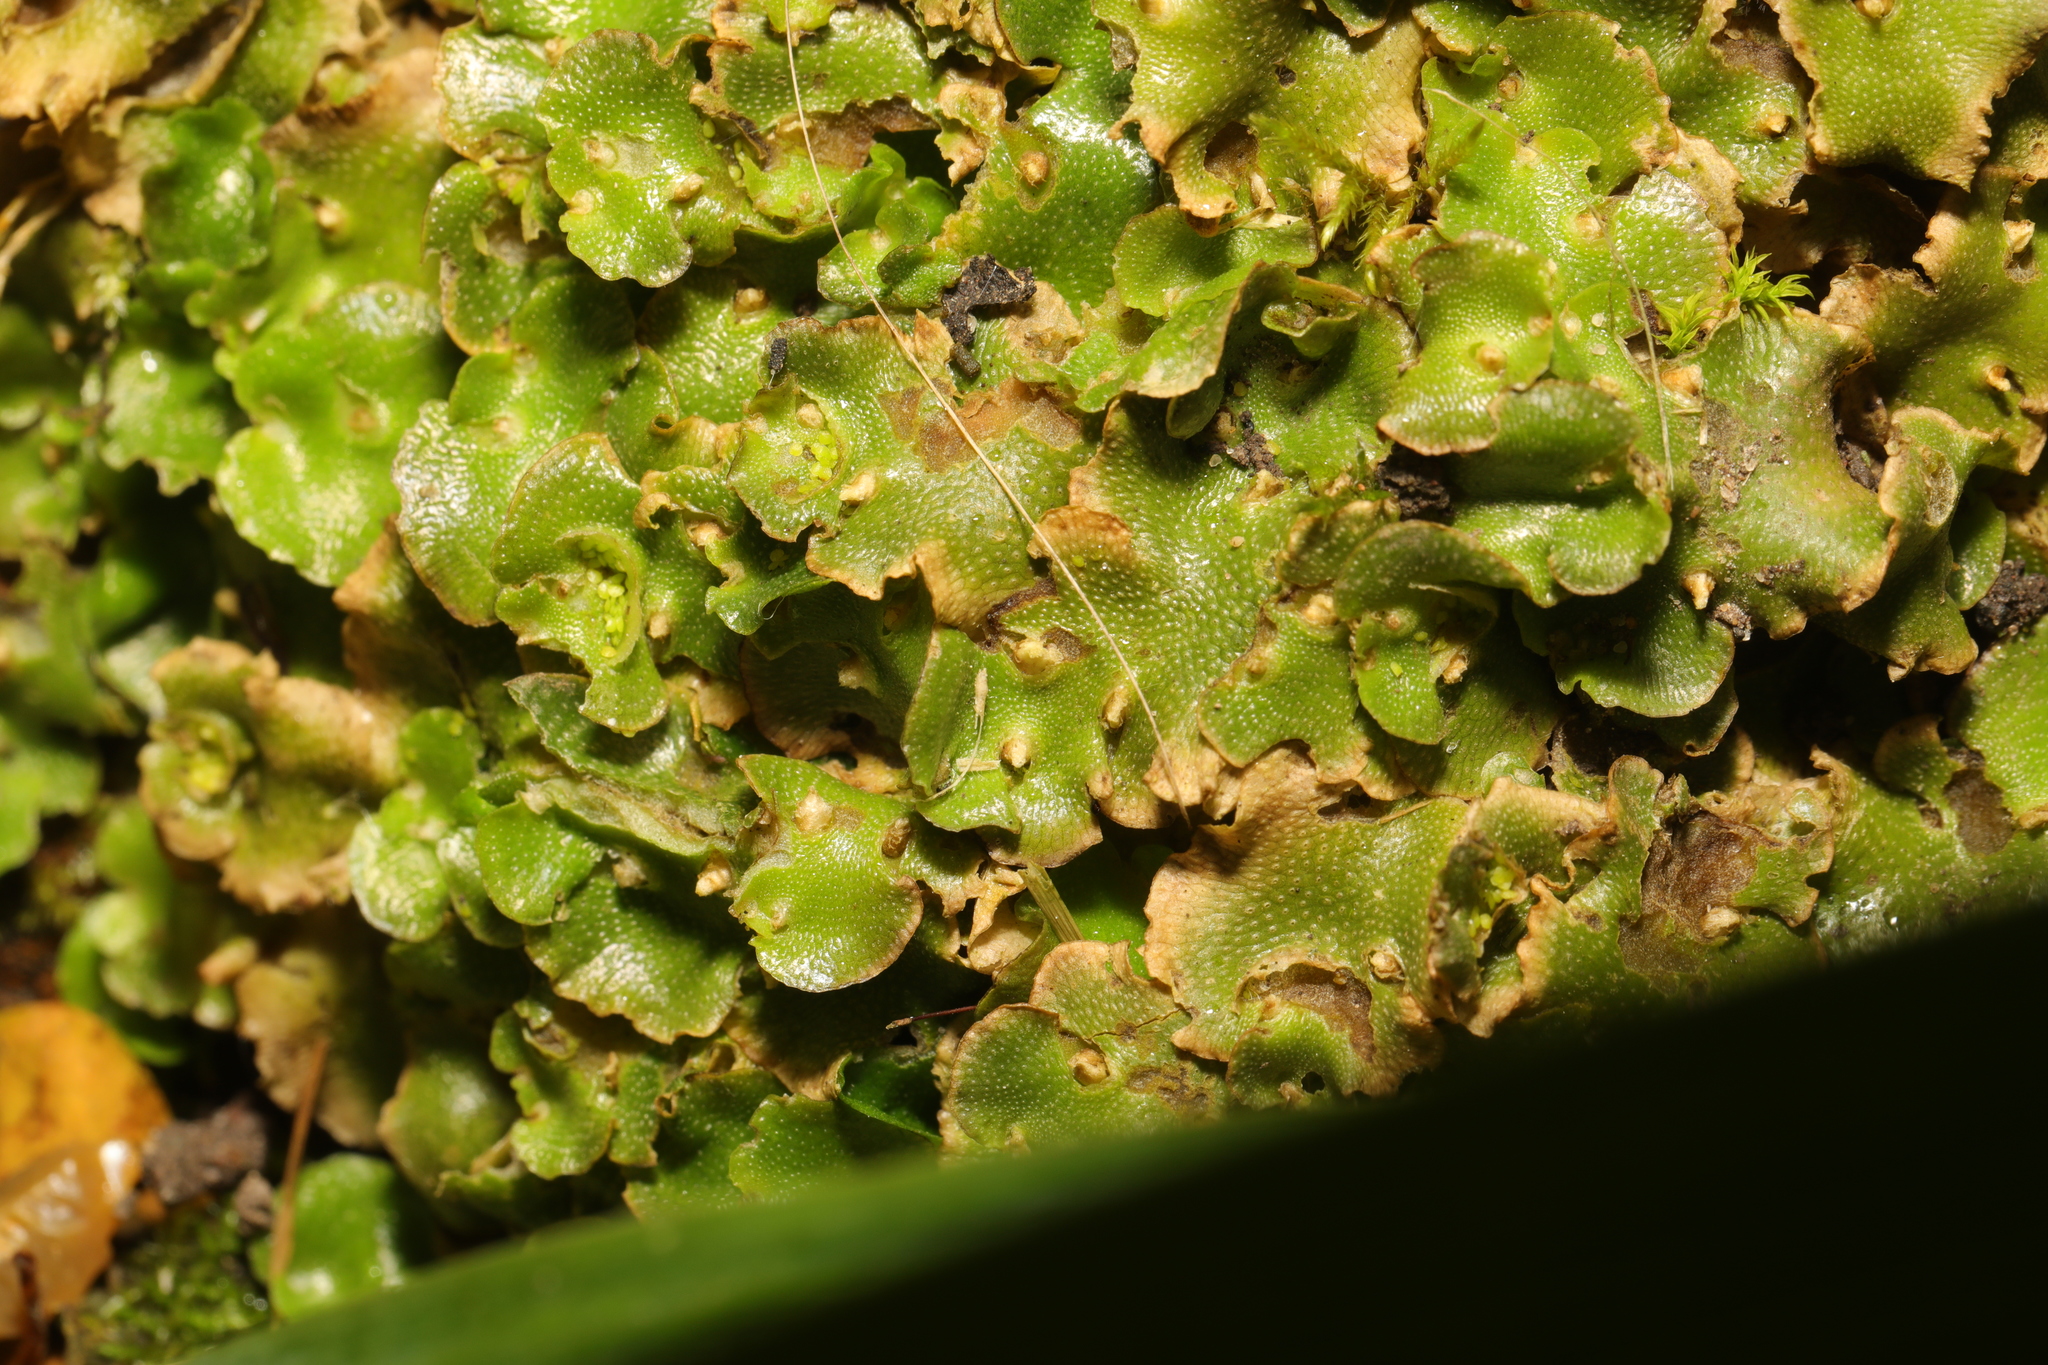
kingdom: Plantae
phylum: Marchantiophyta
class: Marchantiopsida
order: Lunulariales
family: Lunulariaceae
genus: Lunularia
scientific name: Lunularia cruciata
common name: Crescent-cup liverwort
